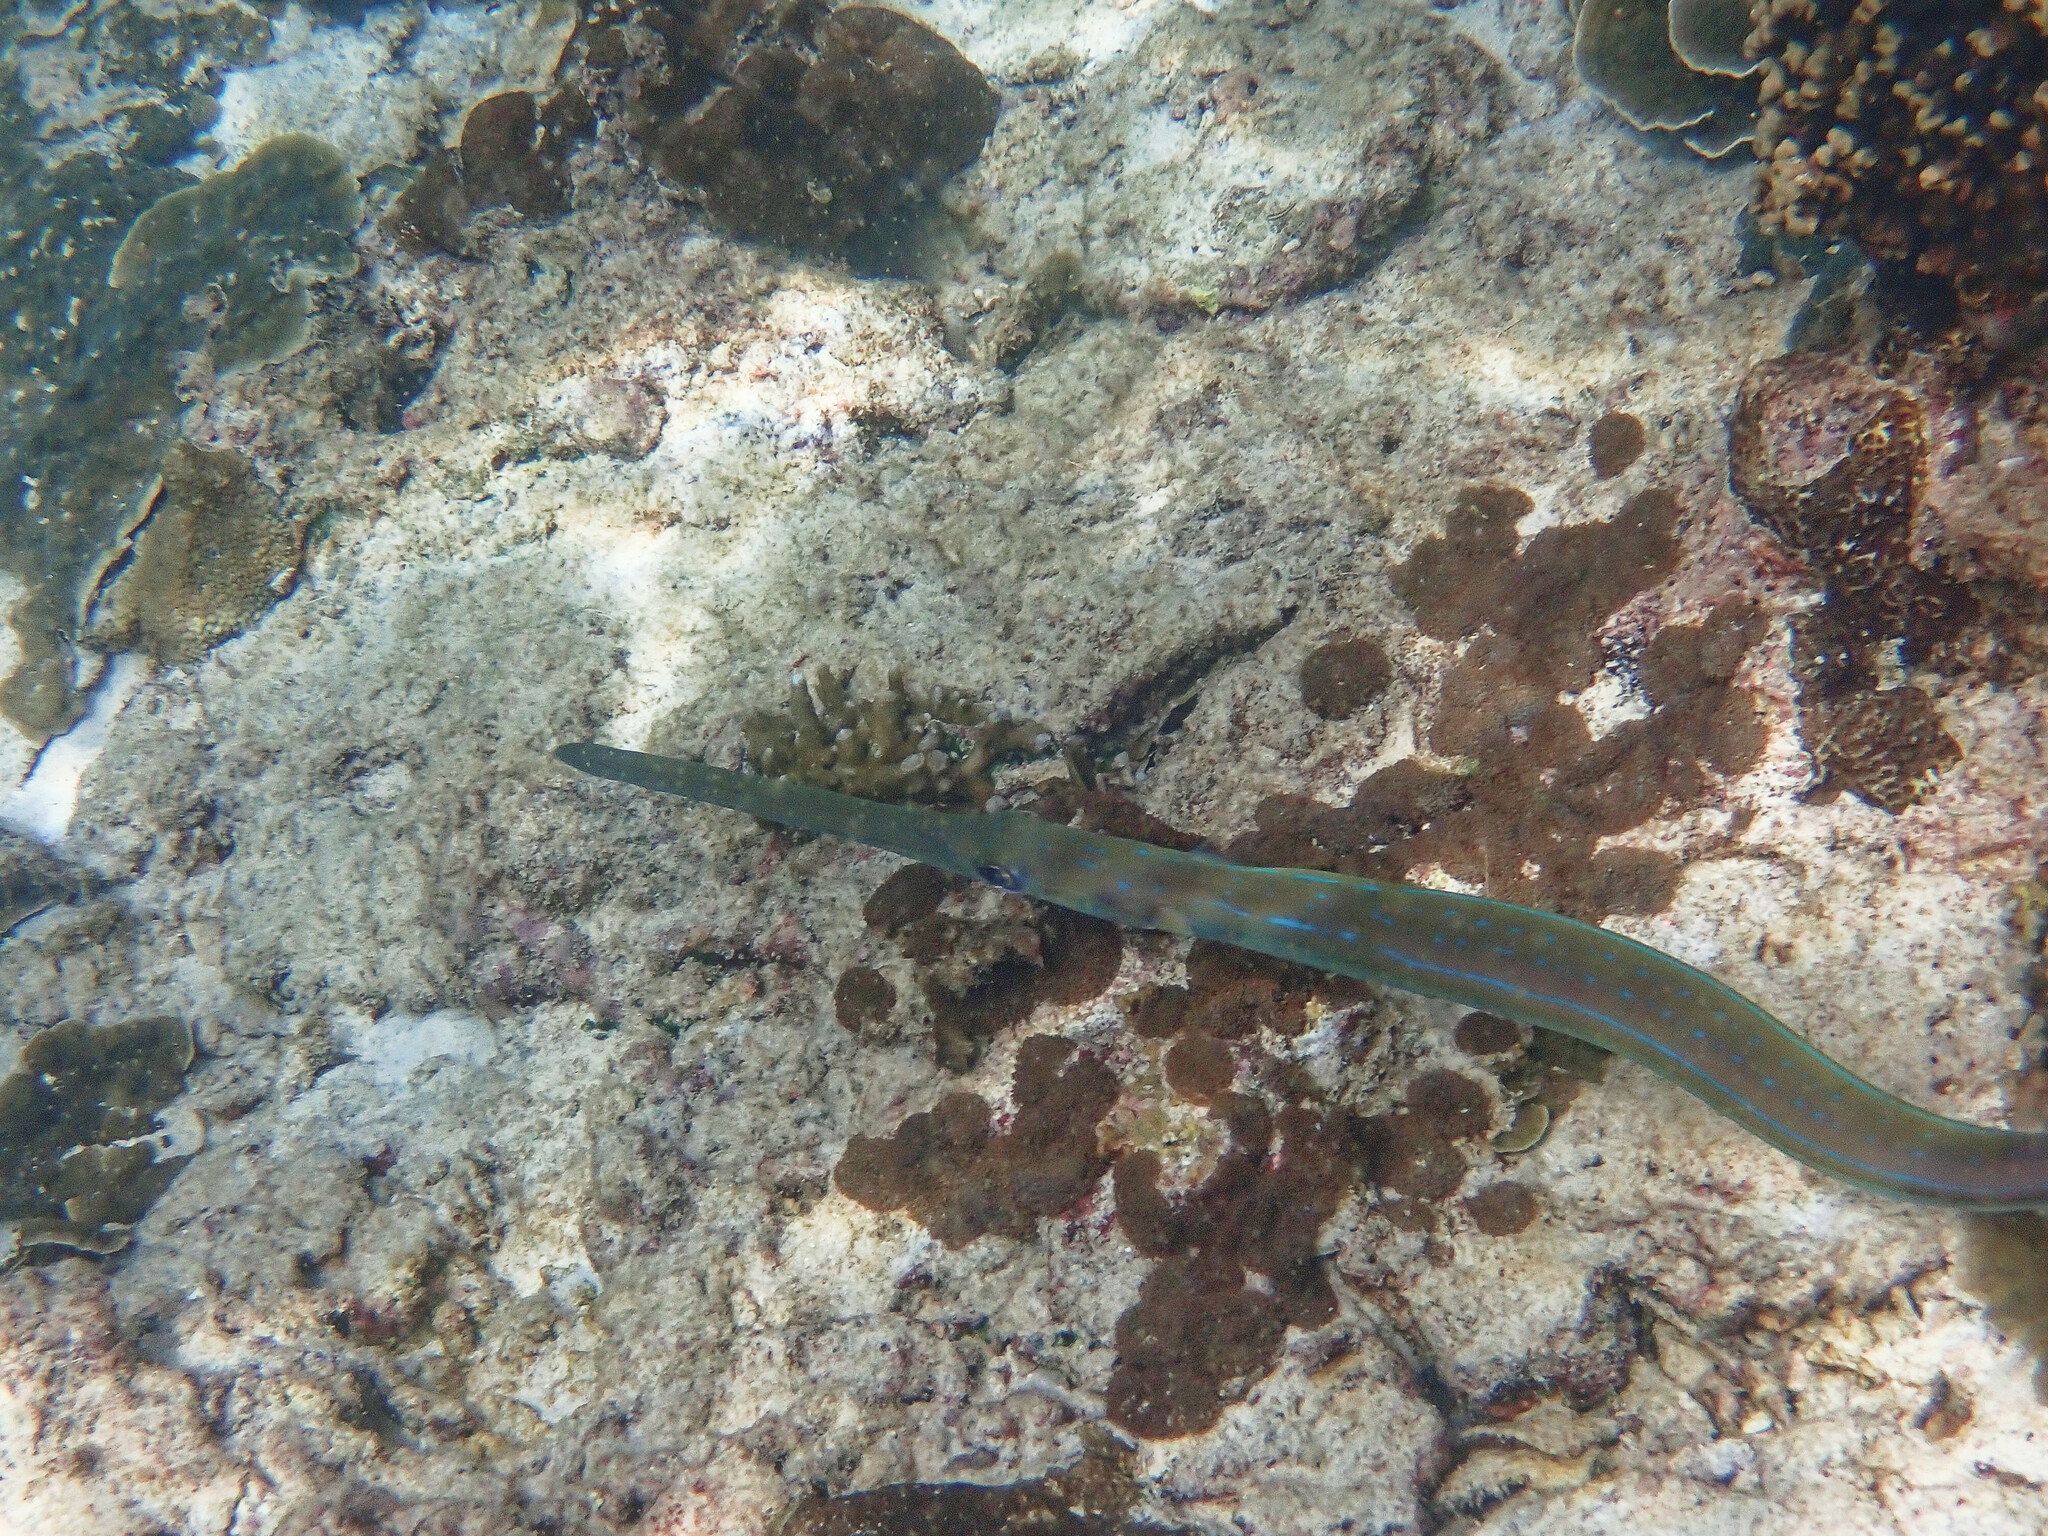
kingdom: Animalia
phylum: Chordata
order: Syngnathiformes
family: Fistulariidae
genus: Fistularia
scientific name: Fistularia commersonii
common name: Bluespotted cornetfish
